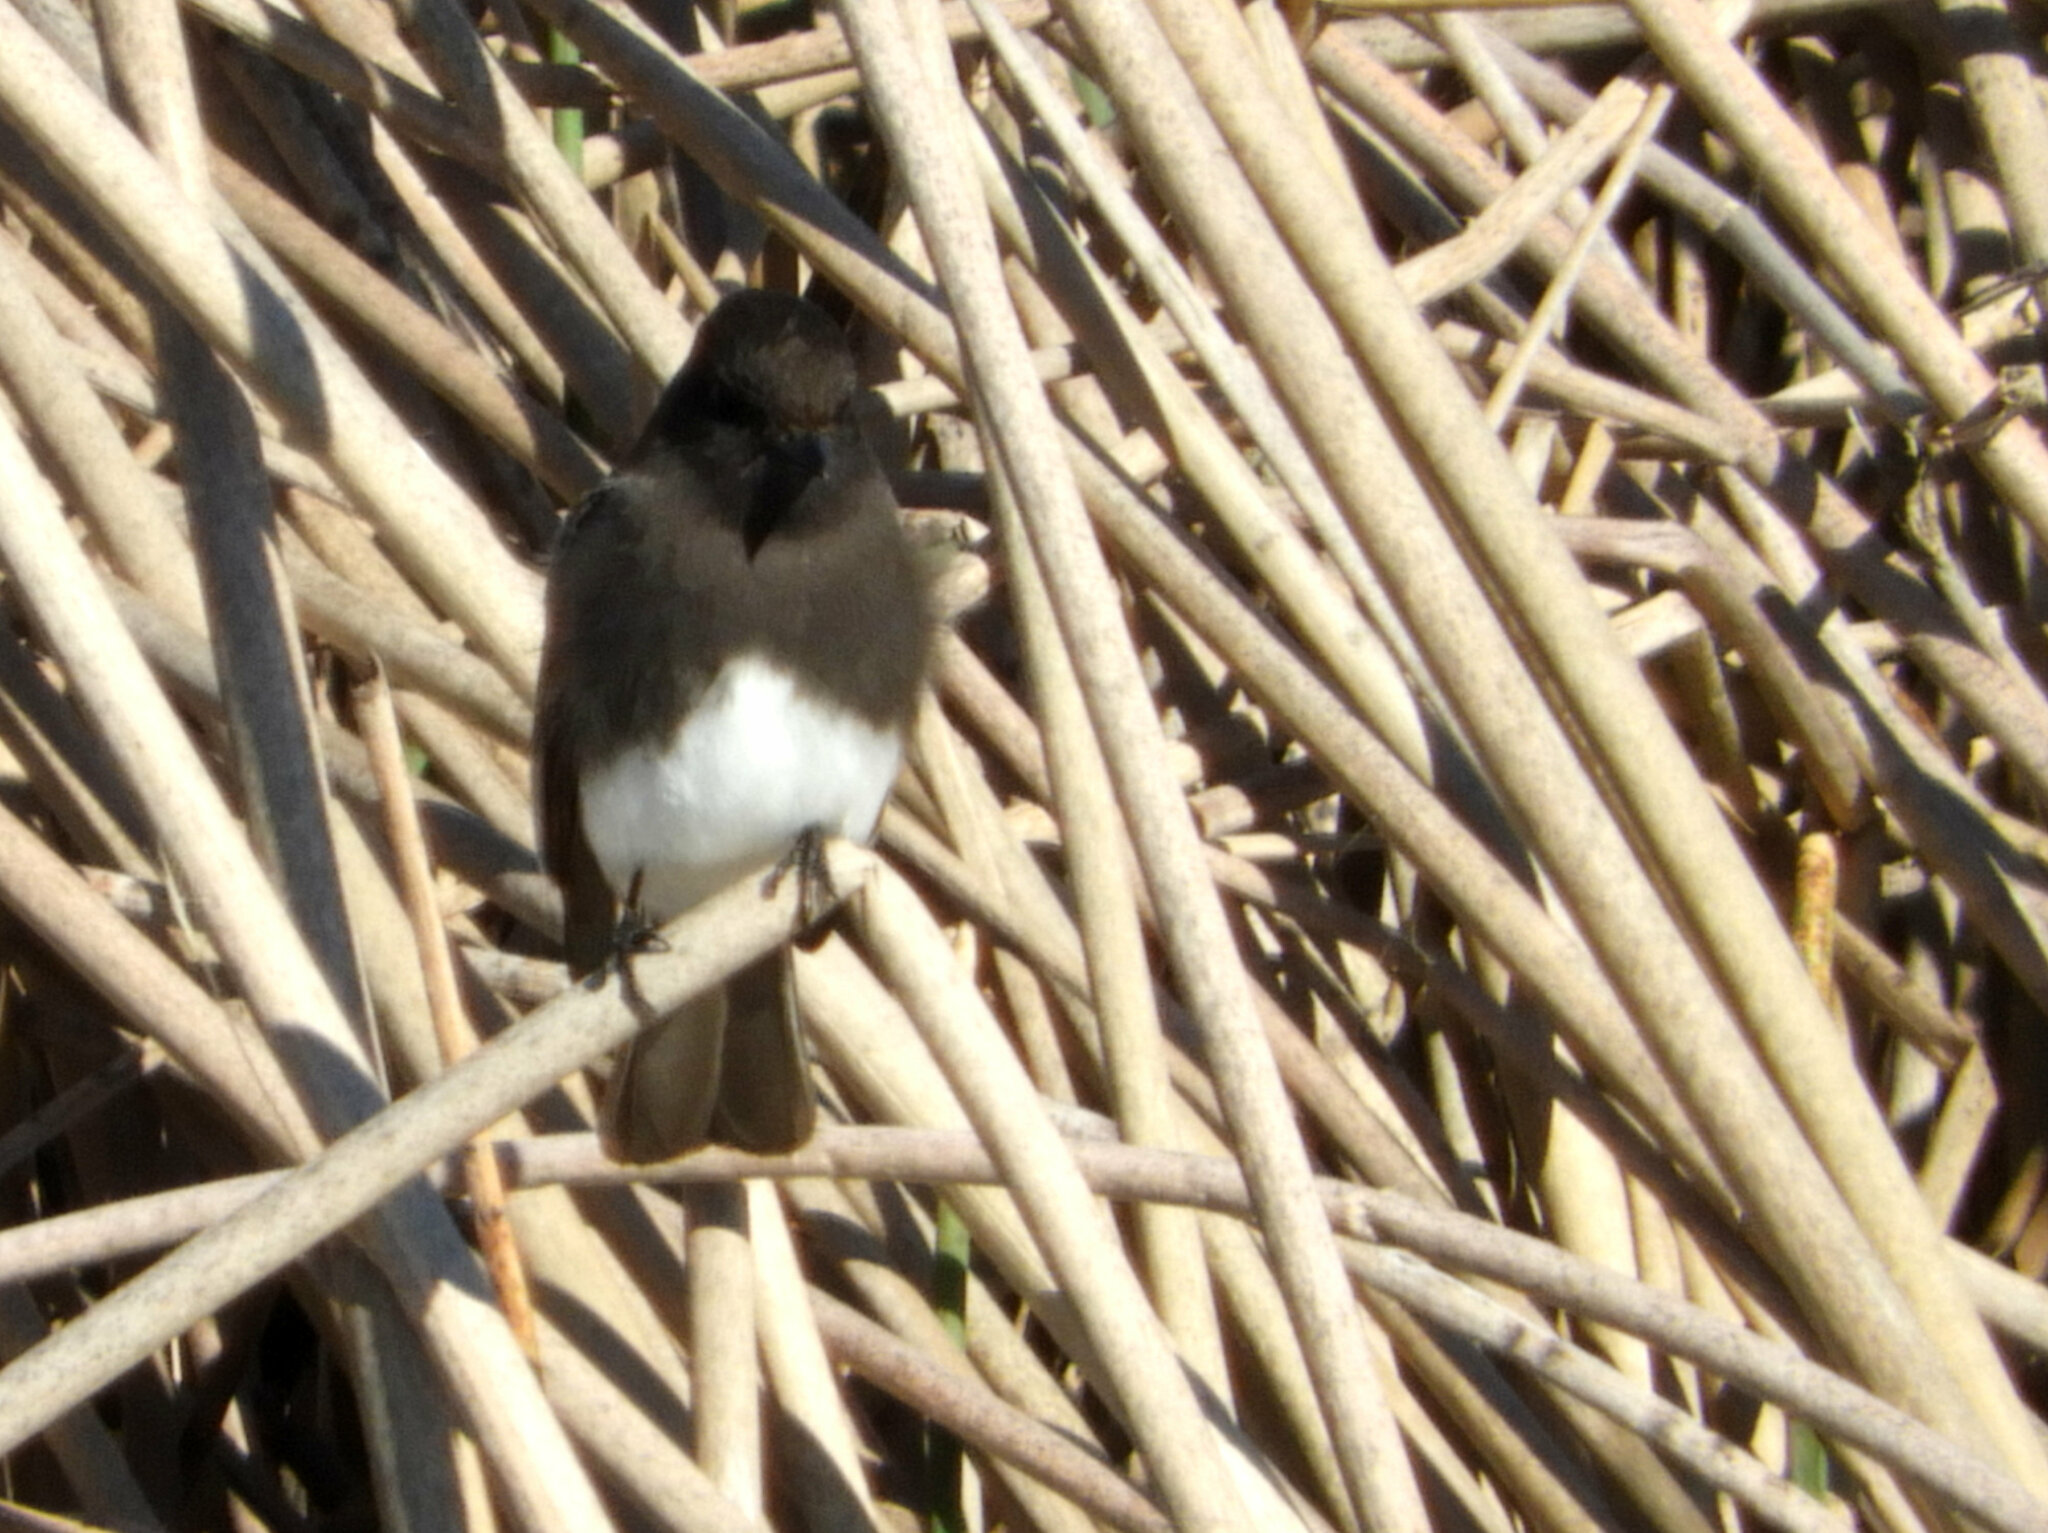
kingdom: Animalia
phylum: Chordata
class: Aves
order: Passeriformes
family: Tyrannidae
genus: Sayornis
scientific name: Sayornis nigricans
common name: Black phoebe
